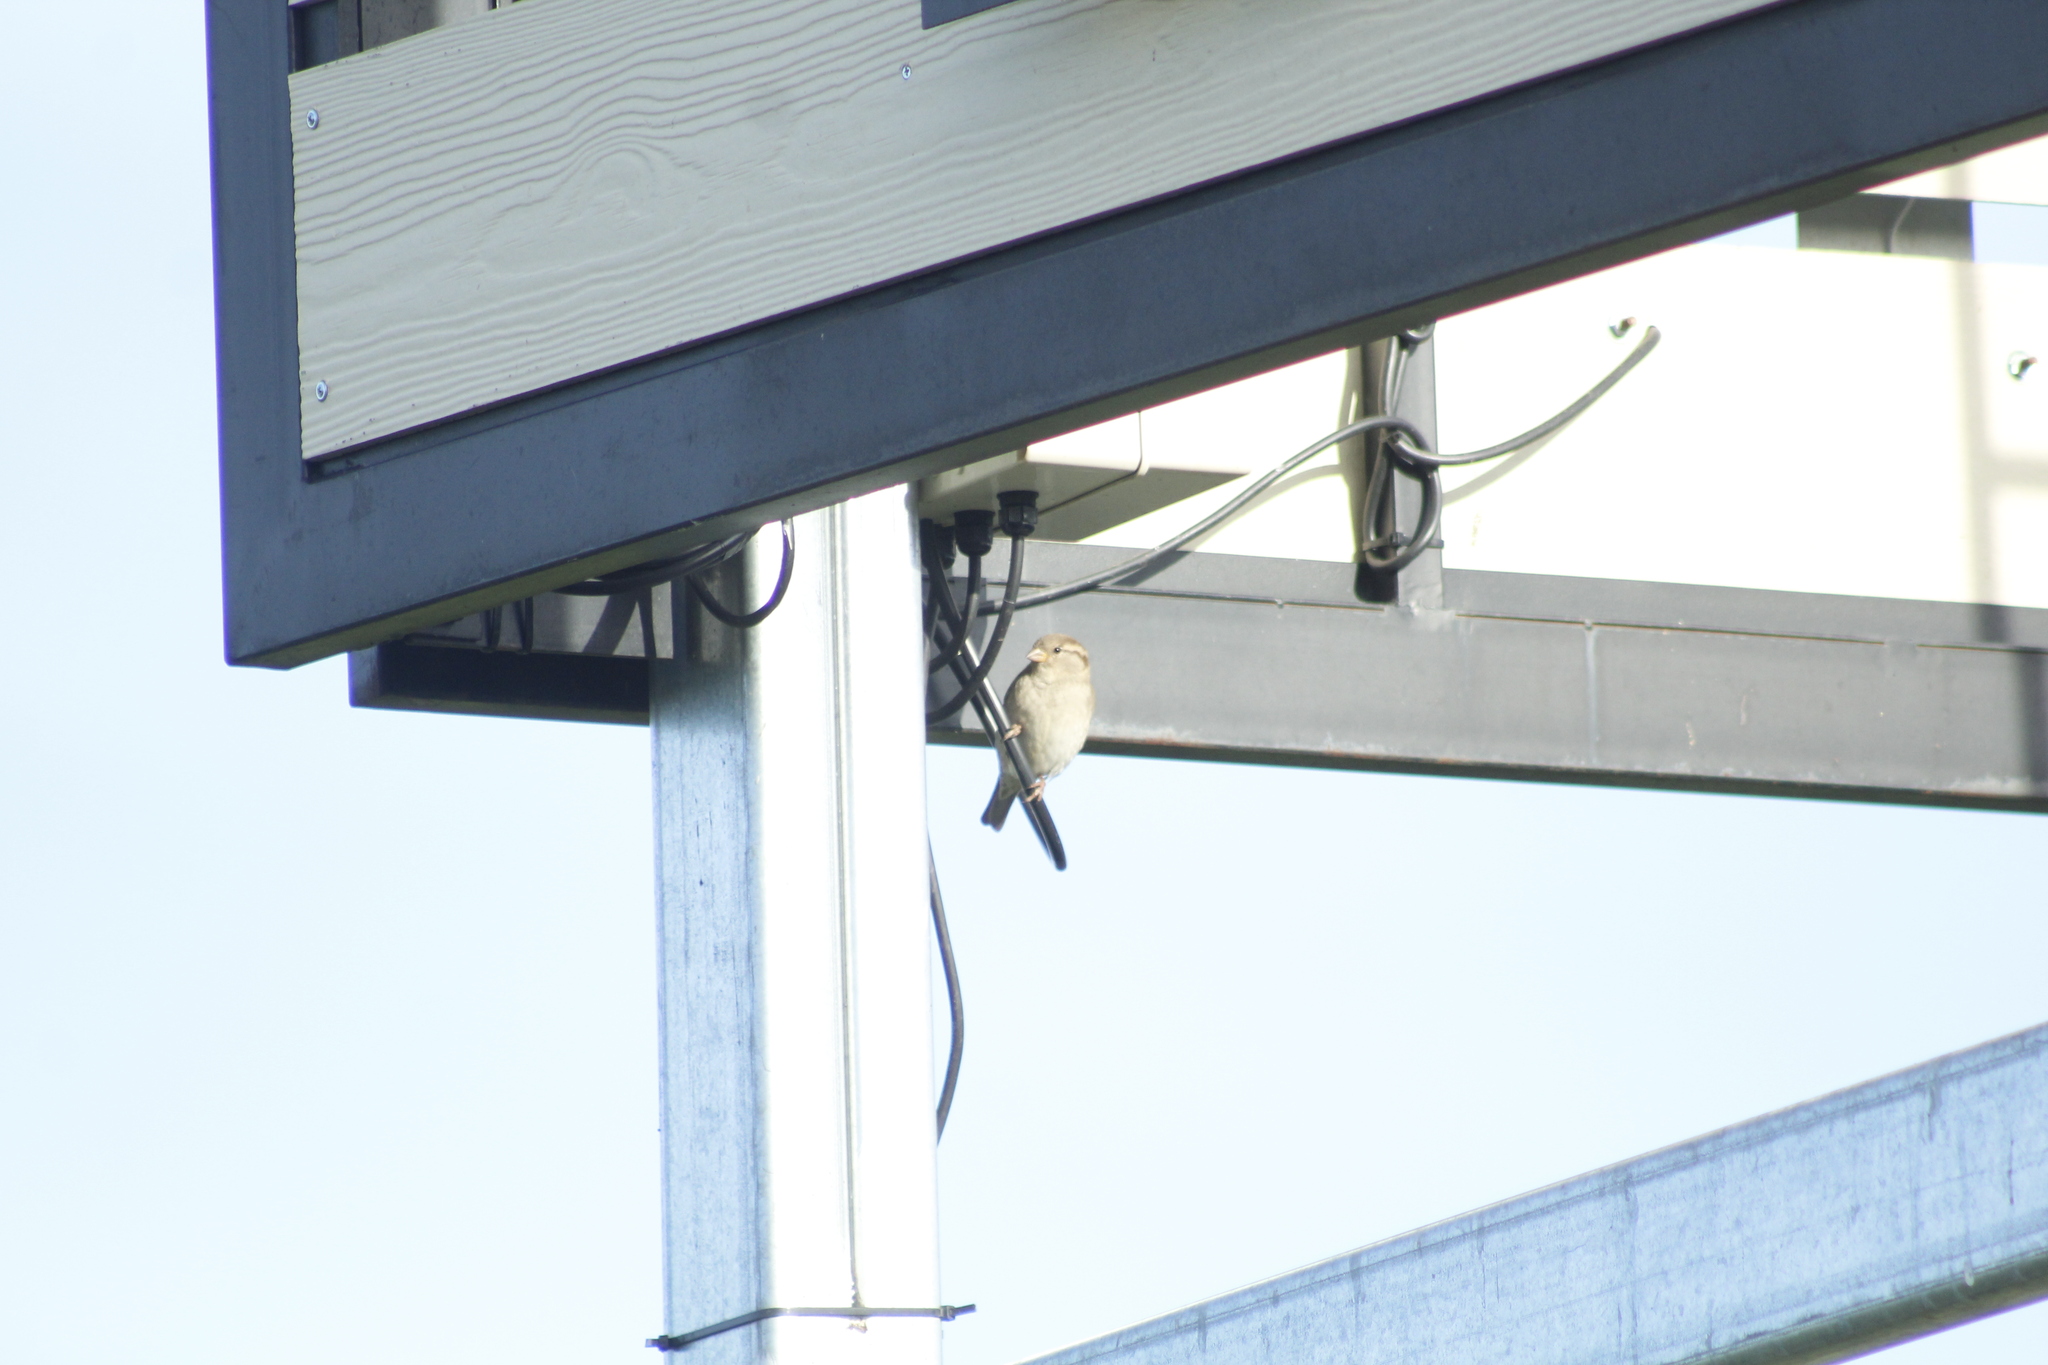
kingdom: Animalia
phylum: Chordata
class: Aves
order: Passeriformes
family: Passeridae
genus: Passer
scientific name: Passer domesticus
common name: House sparrow
